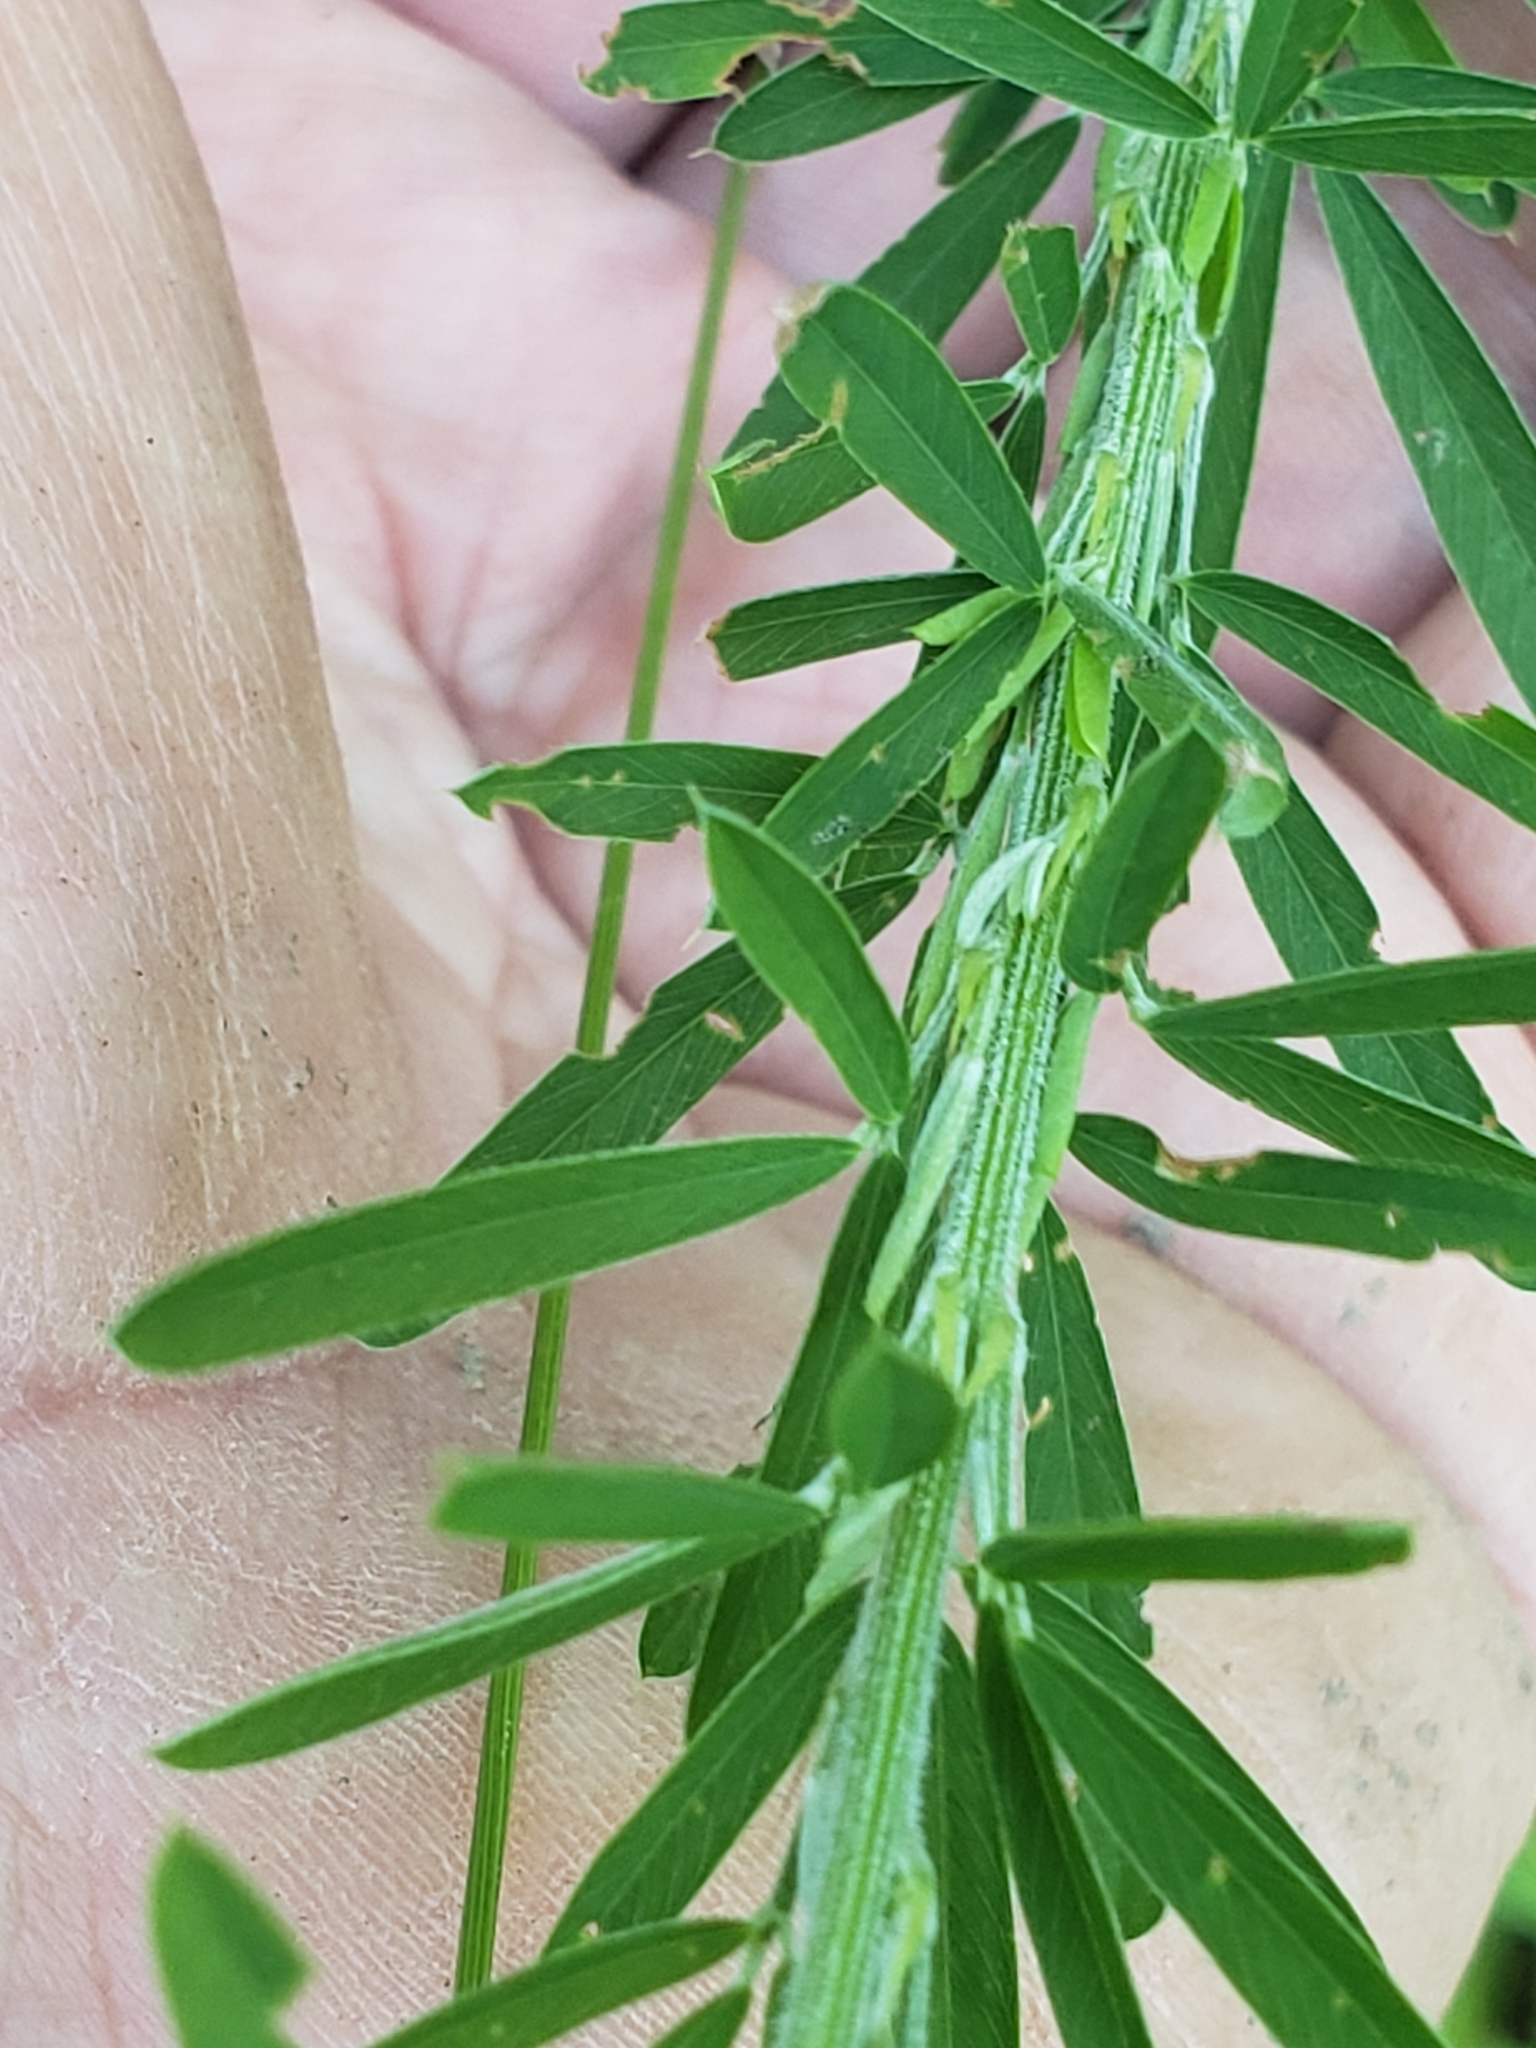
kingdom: Plantae
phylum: Tracheophyta
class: Magnoliopsida
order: Fabales
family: Fabaceae
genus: Lespedeza
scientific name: Lespedeza cuneata
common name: Chinese bush-clover
